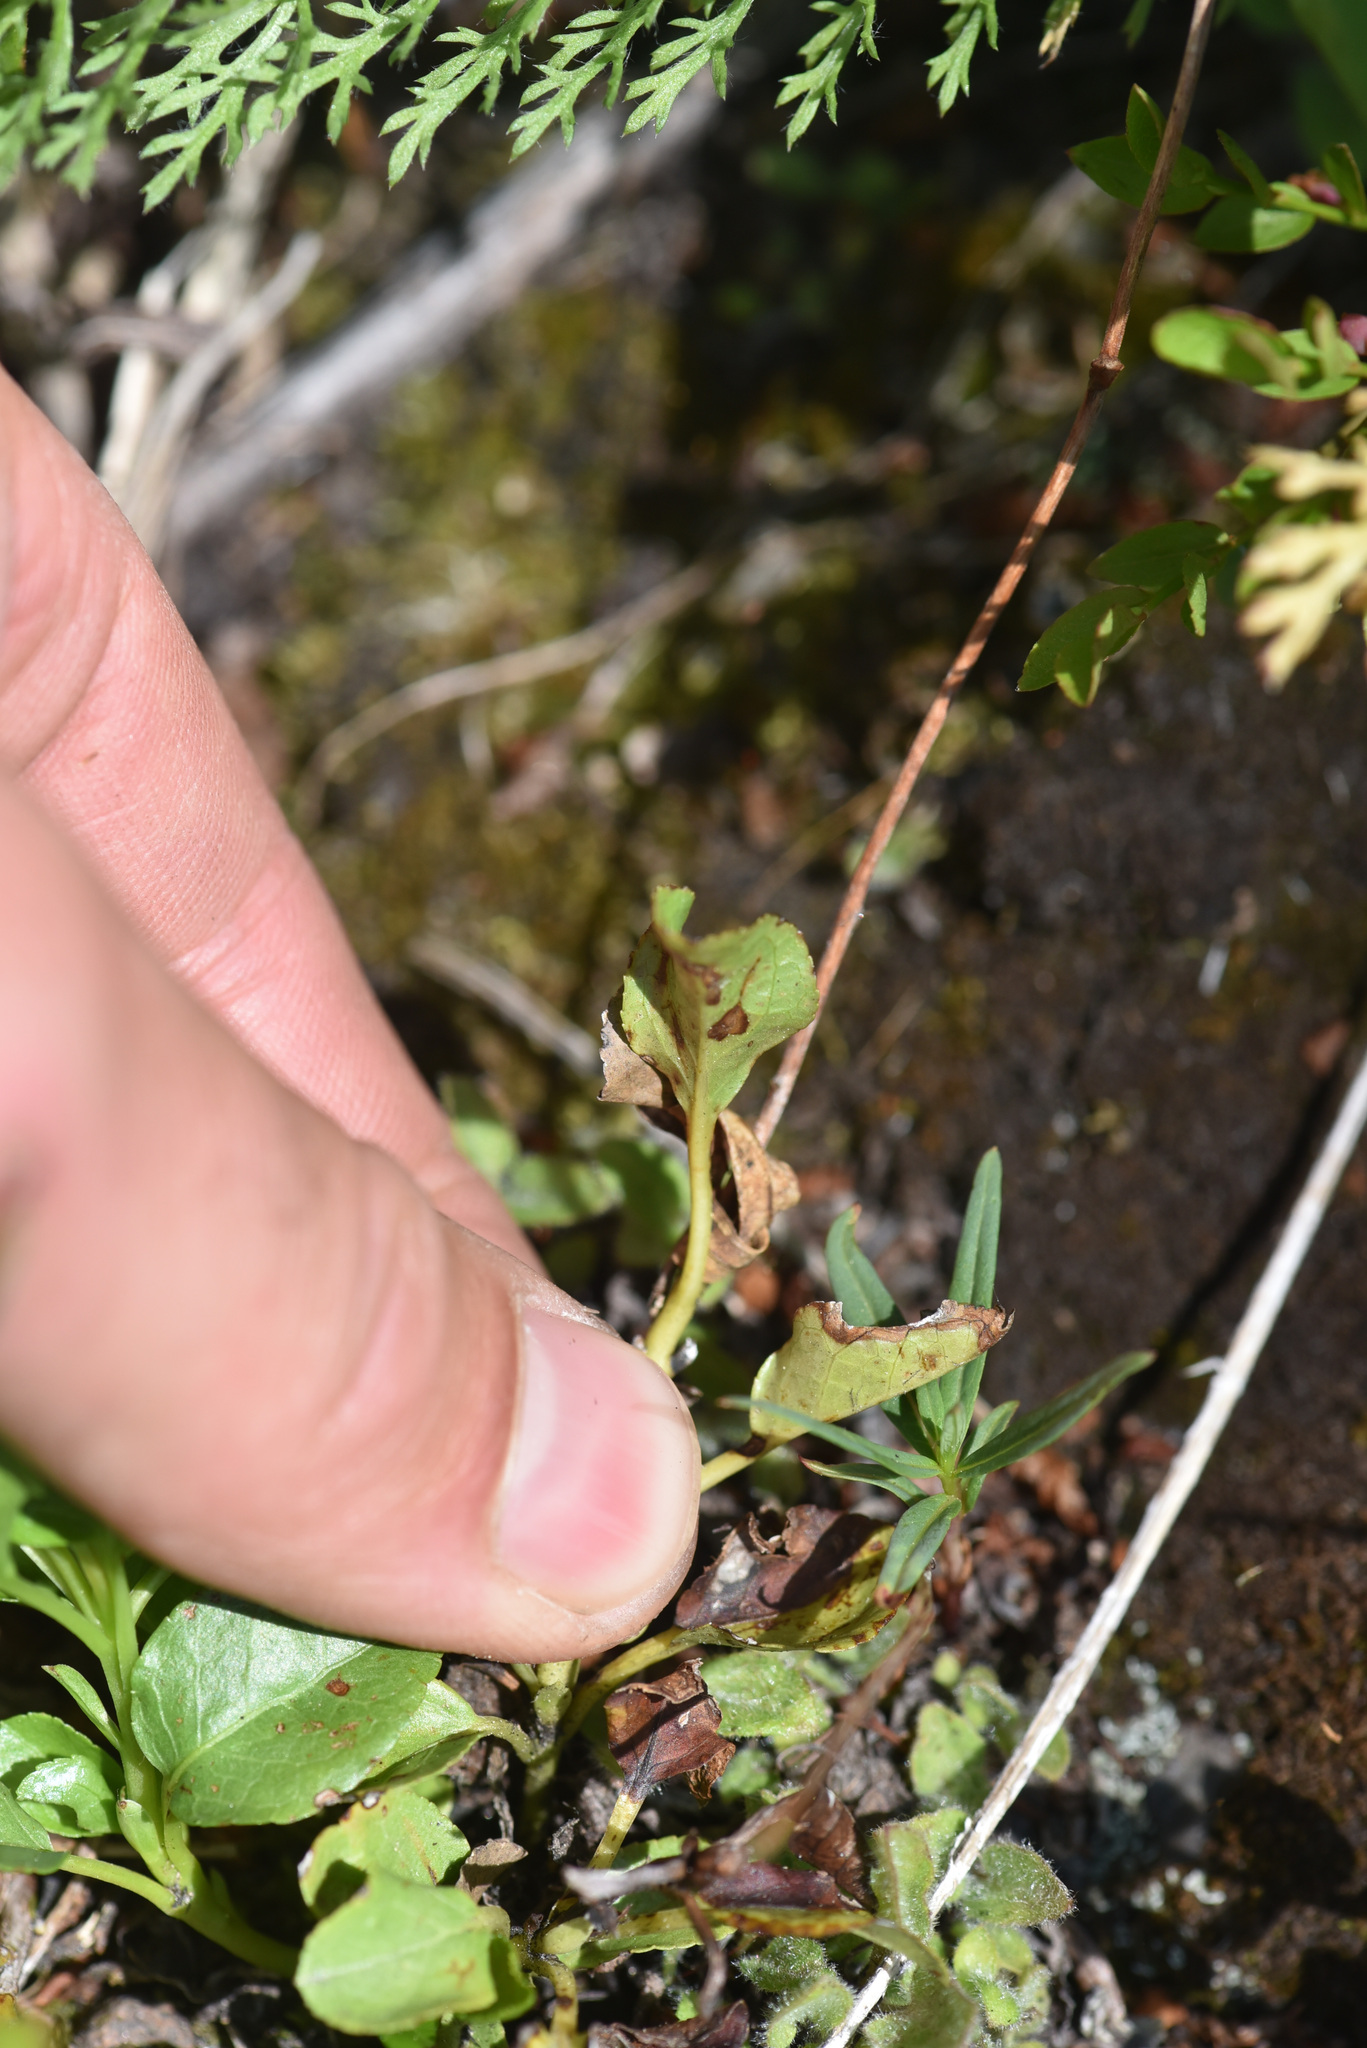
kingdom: Plantae
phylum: Tracheophyta
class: Magnoliopsida
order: Ericales
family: Ericaceae
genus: Orthilia
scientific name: Orthilia secunda
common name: One-sided orthilia
